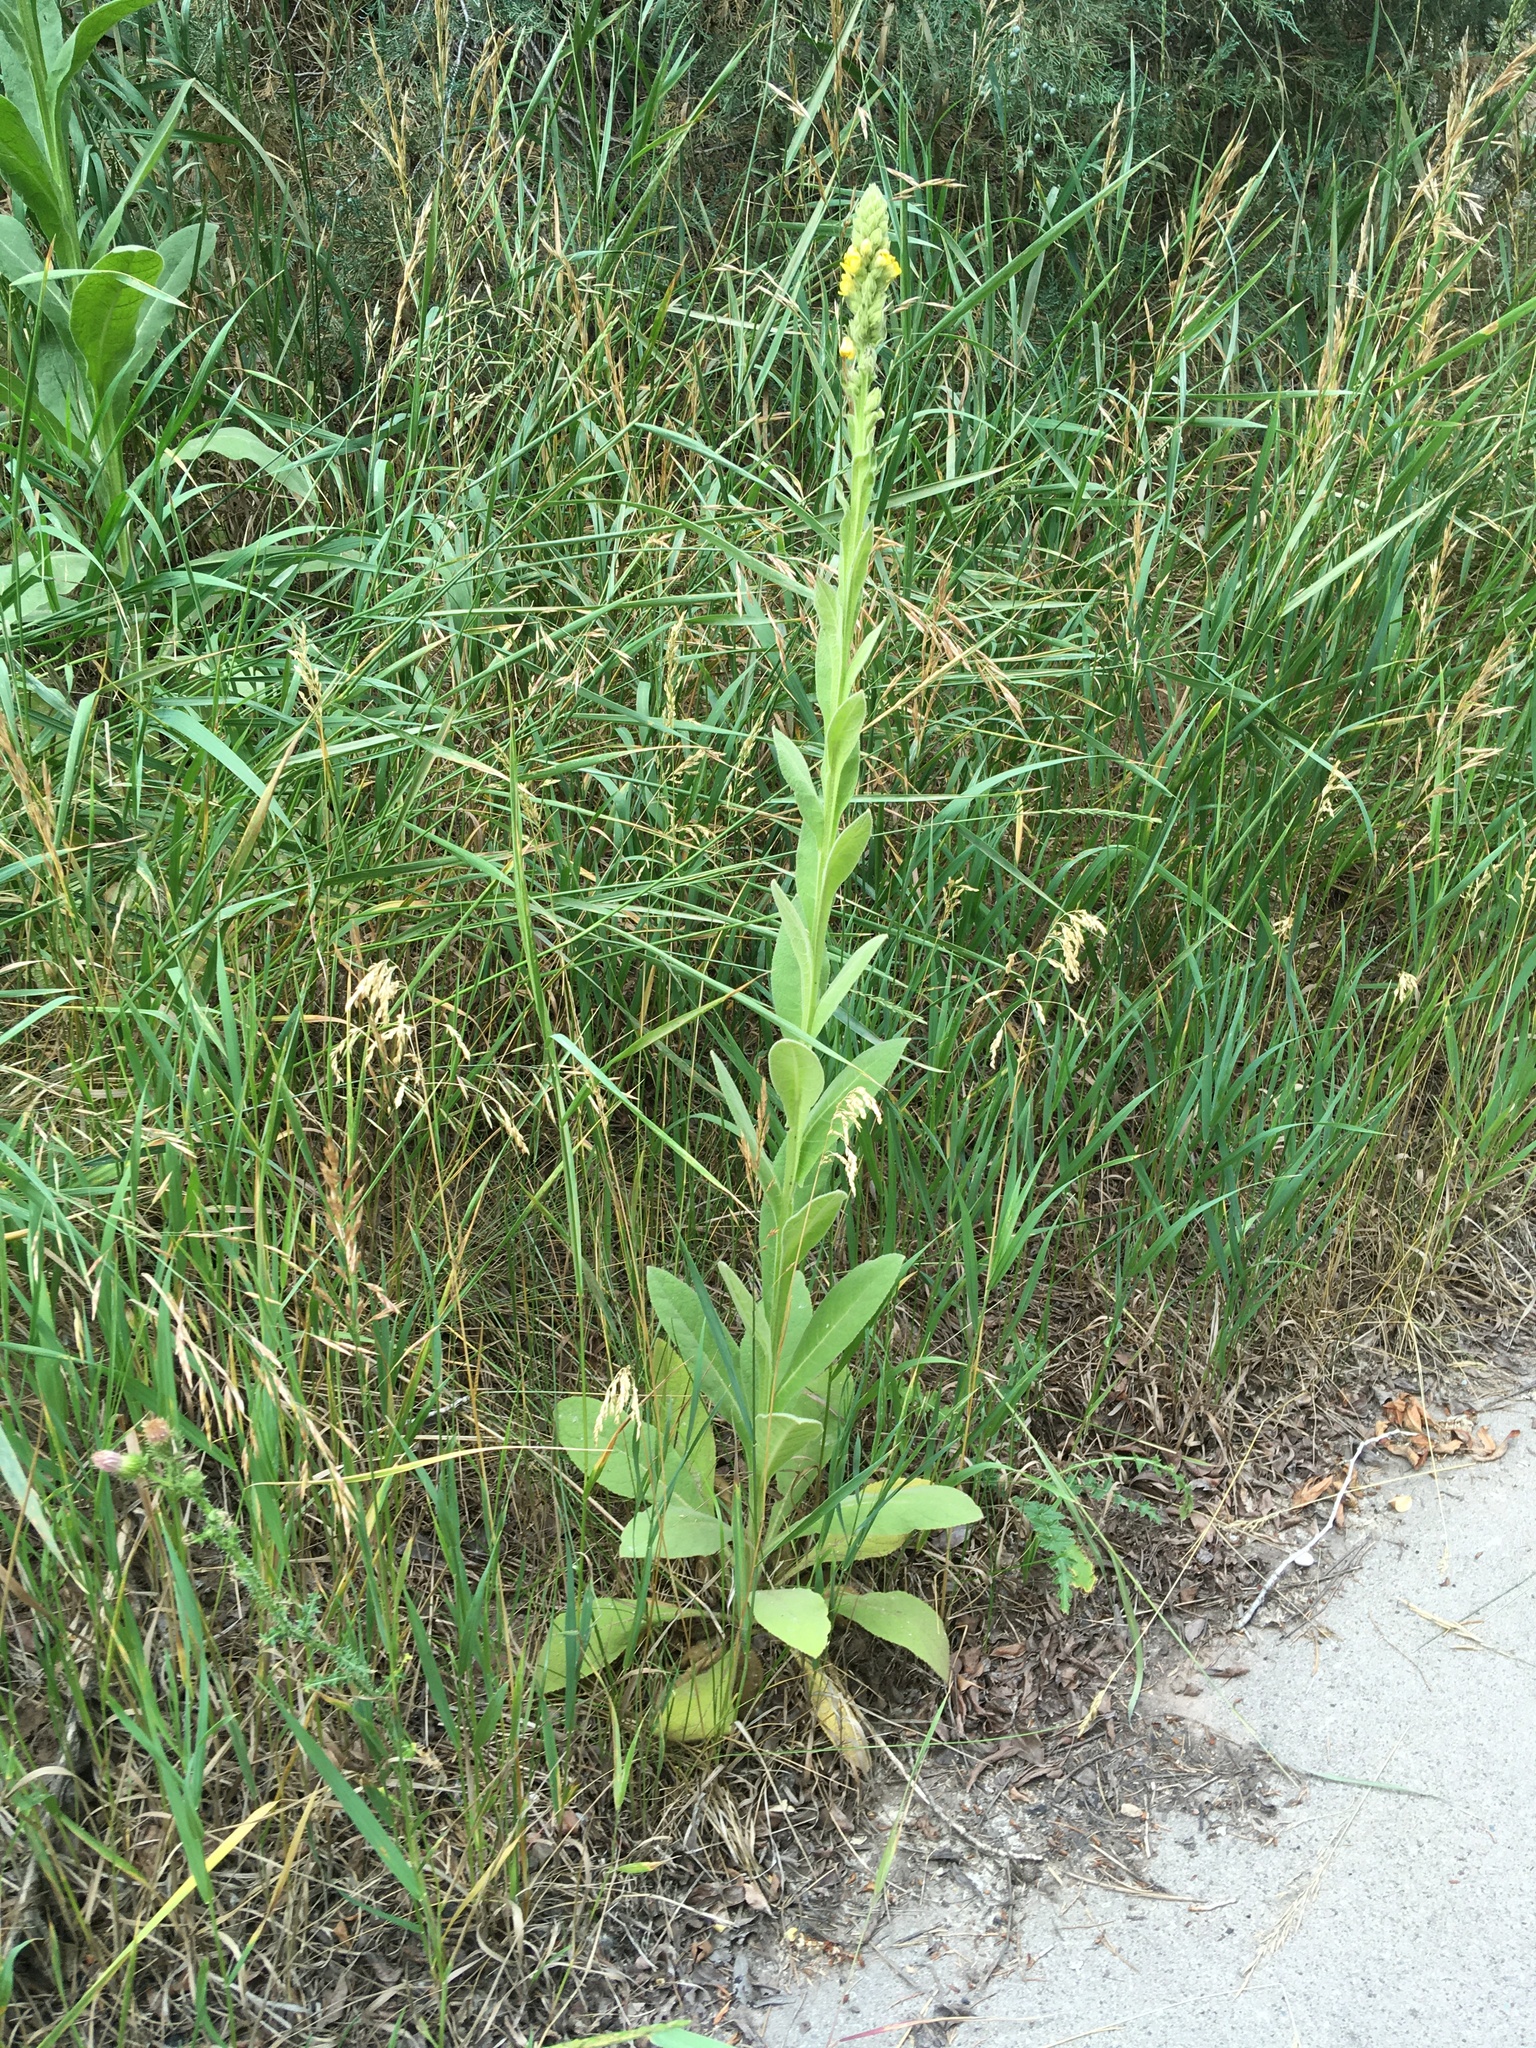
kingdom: Plantae
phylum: Tracheophyta
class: Magnoliopsida
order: Lamiales
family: Scrophulariaceae
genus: Verbascum
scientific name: Verbascum thapsus
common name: Common mullein
